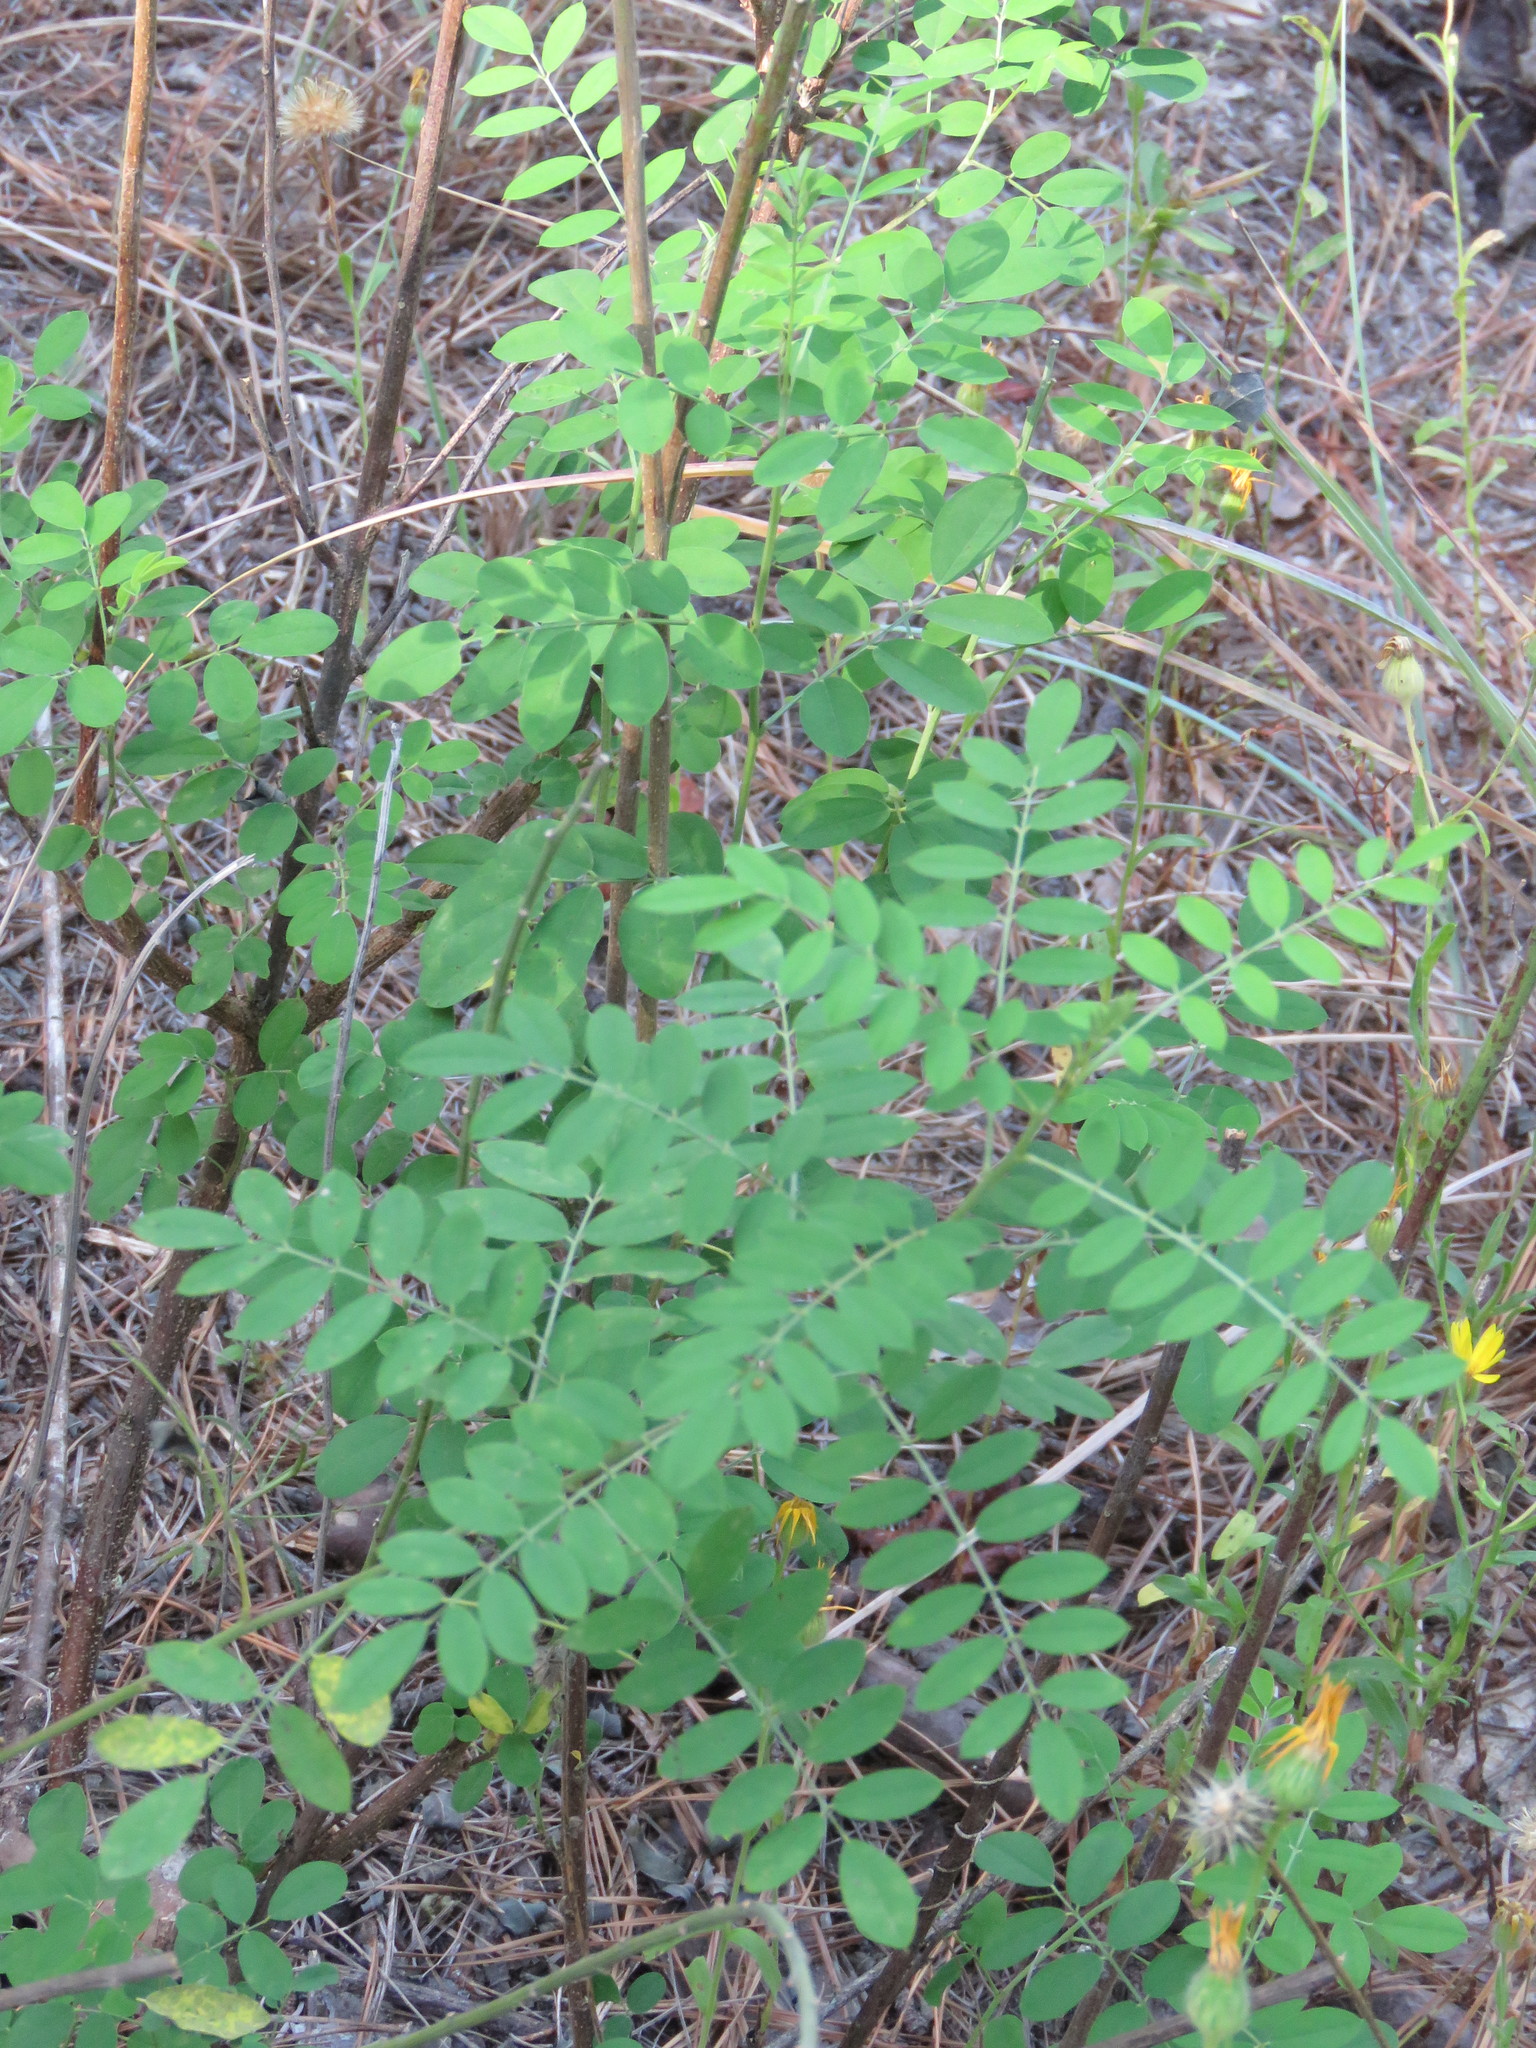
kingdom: Plantae
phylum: Tracheophyta
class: Magnoliopsida
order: Fabales
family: Fabaceae
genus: Indigofera
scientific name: Indigofera suffruticosa
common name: Anil de pasto
